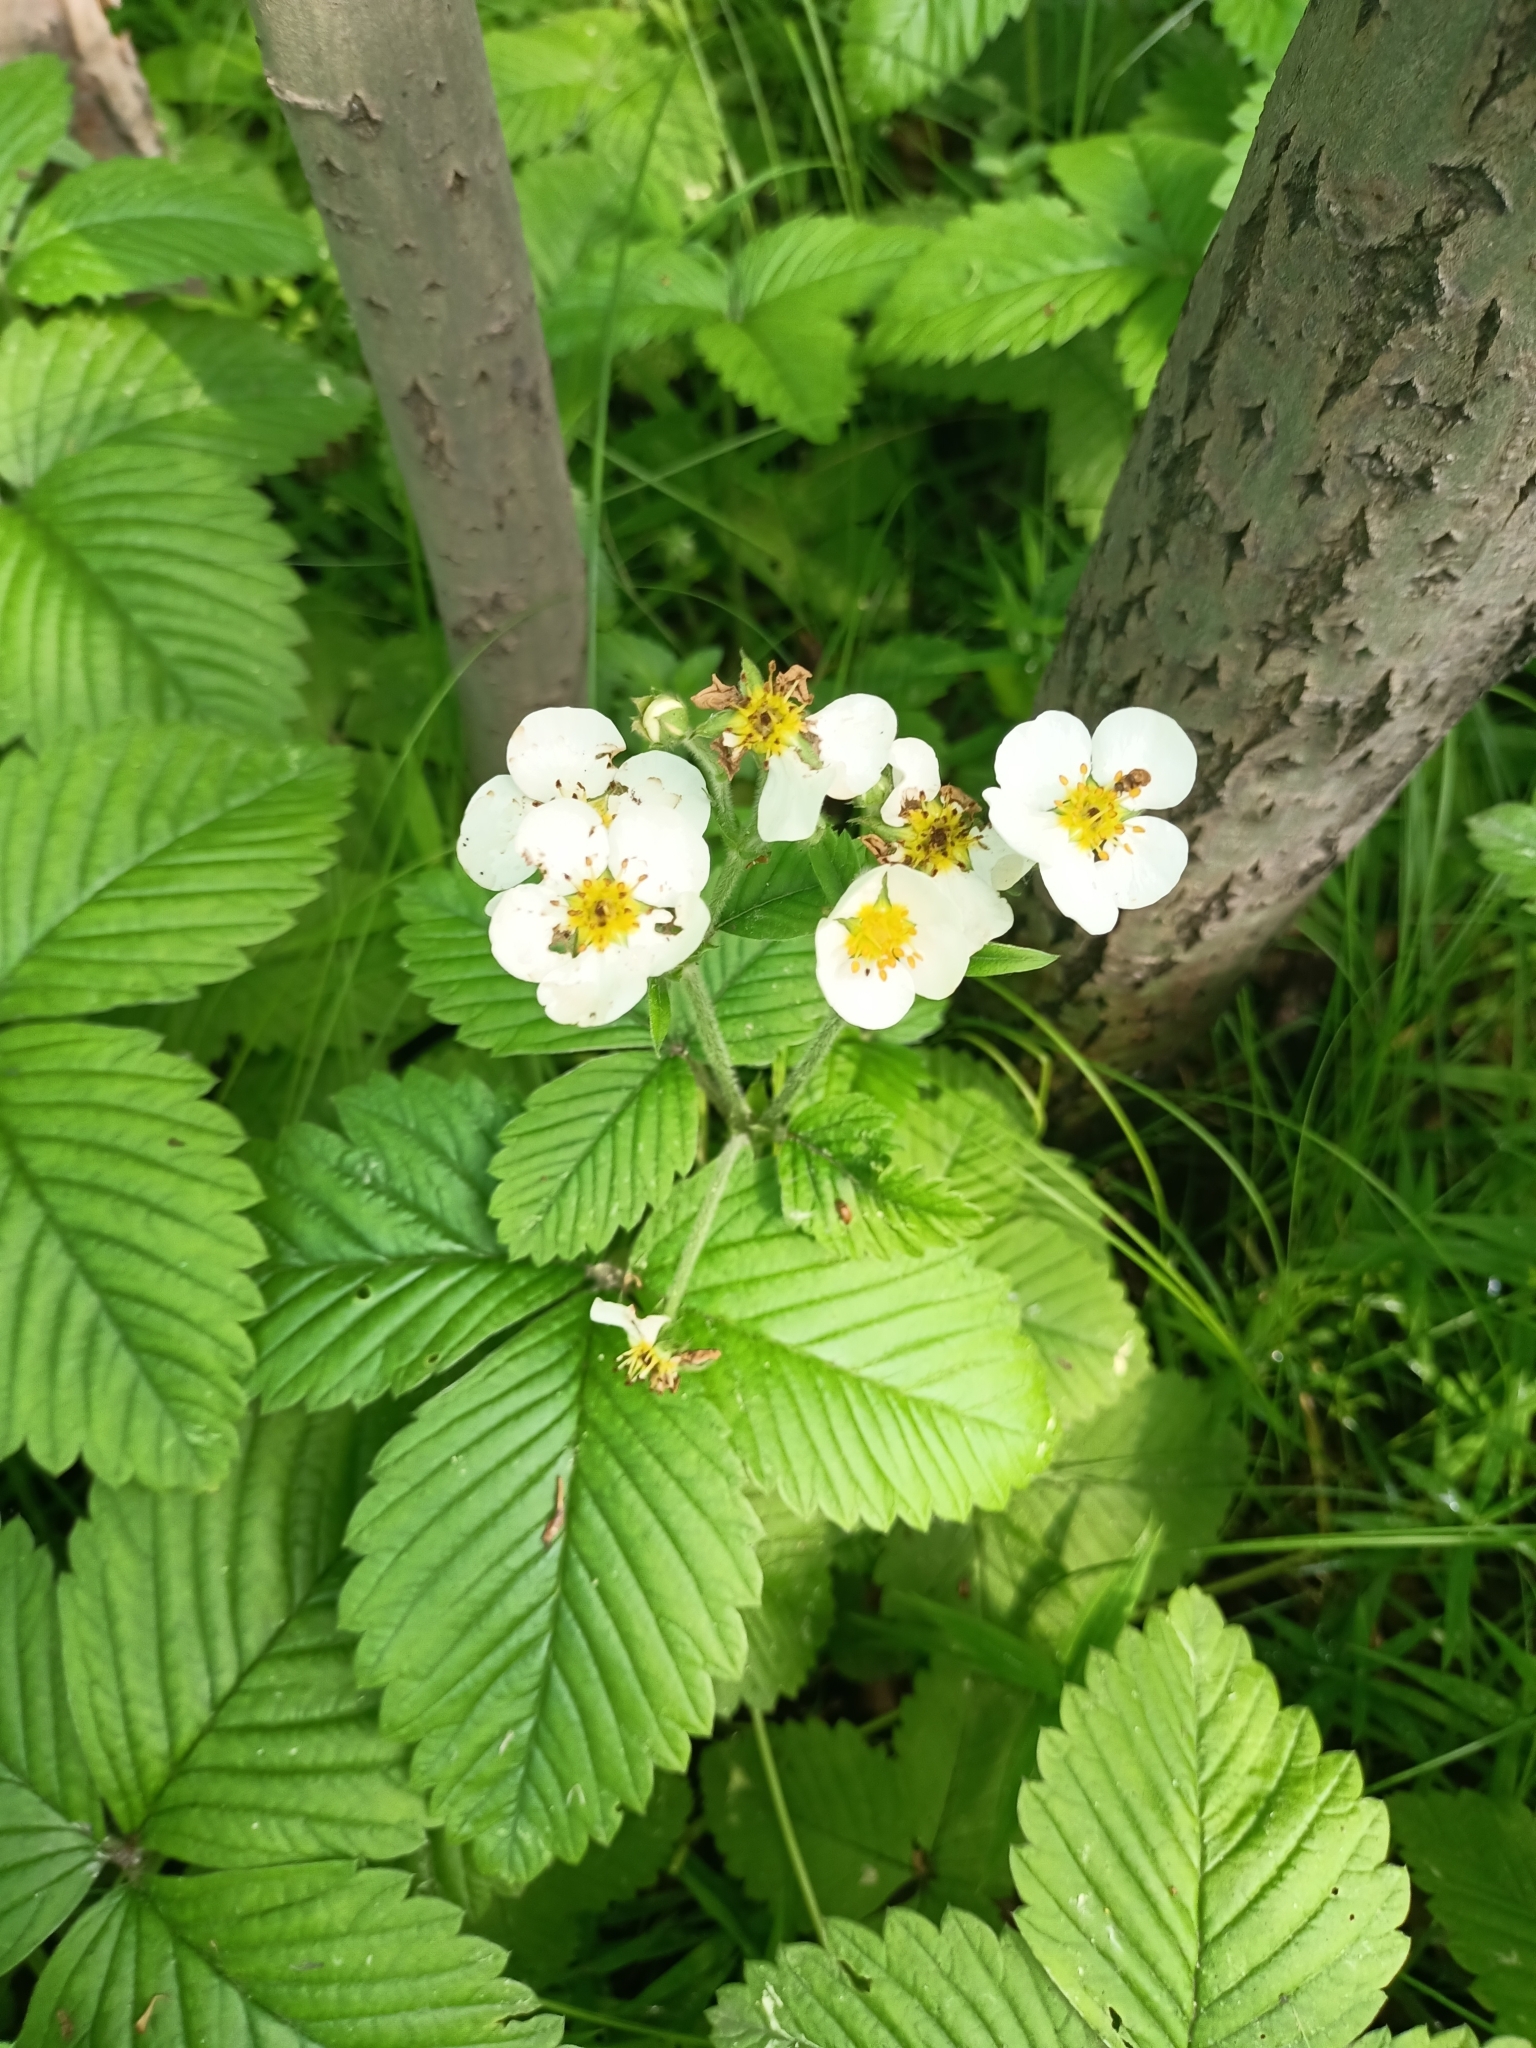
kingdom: Plantae
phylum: Tracheophyta
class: Magnoliopsida
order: Rosales
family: Rosaceae
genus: Fragaria
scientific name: Fragaria moschata
